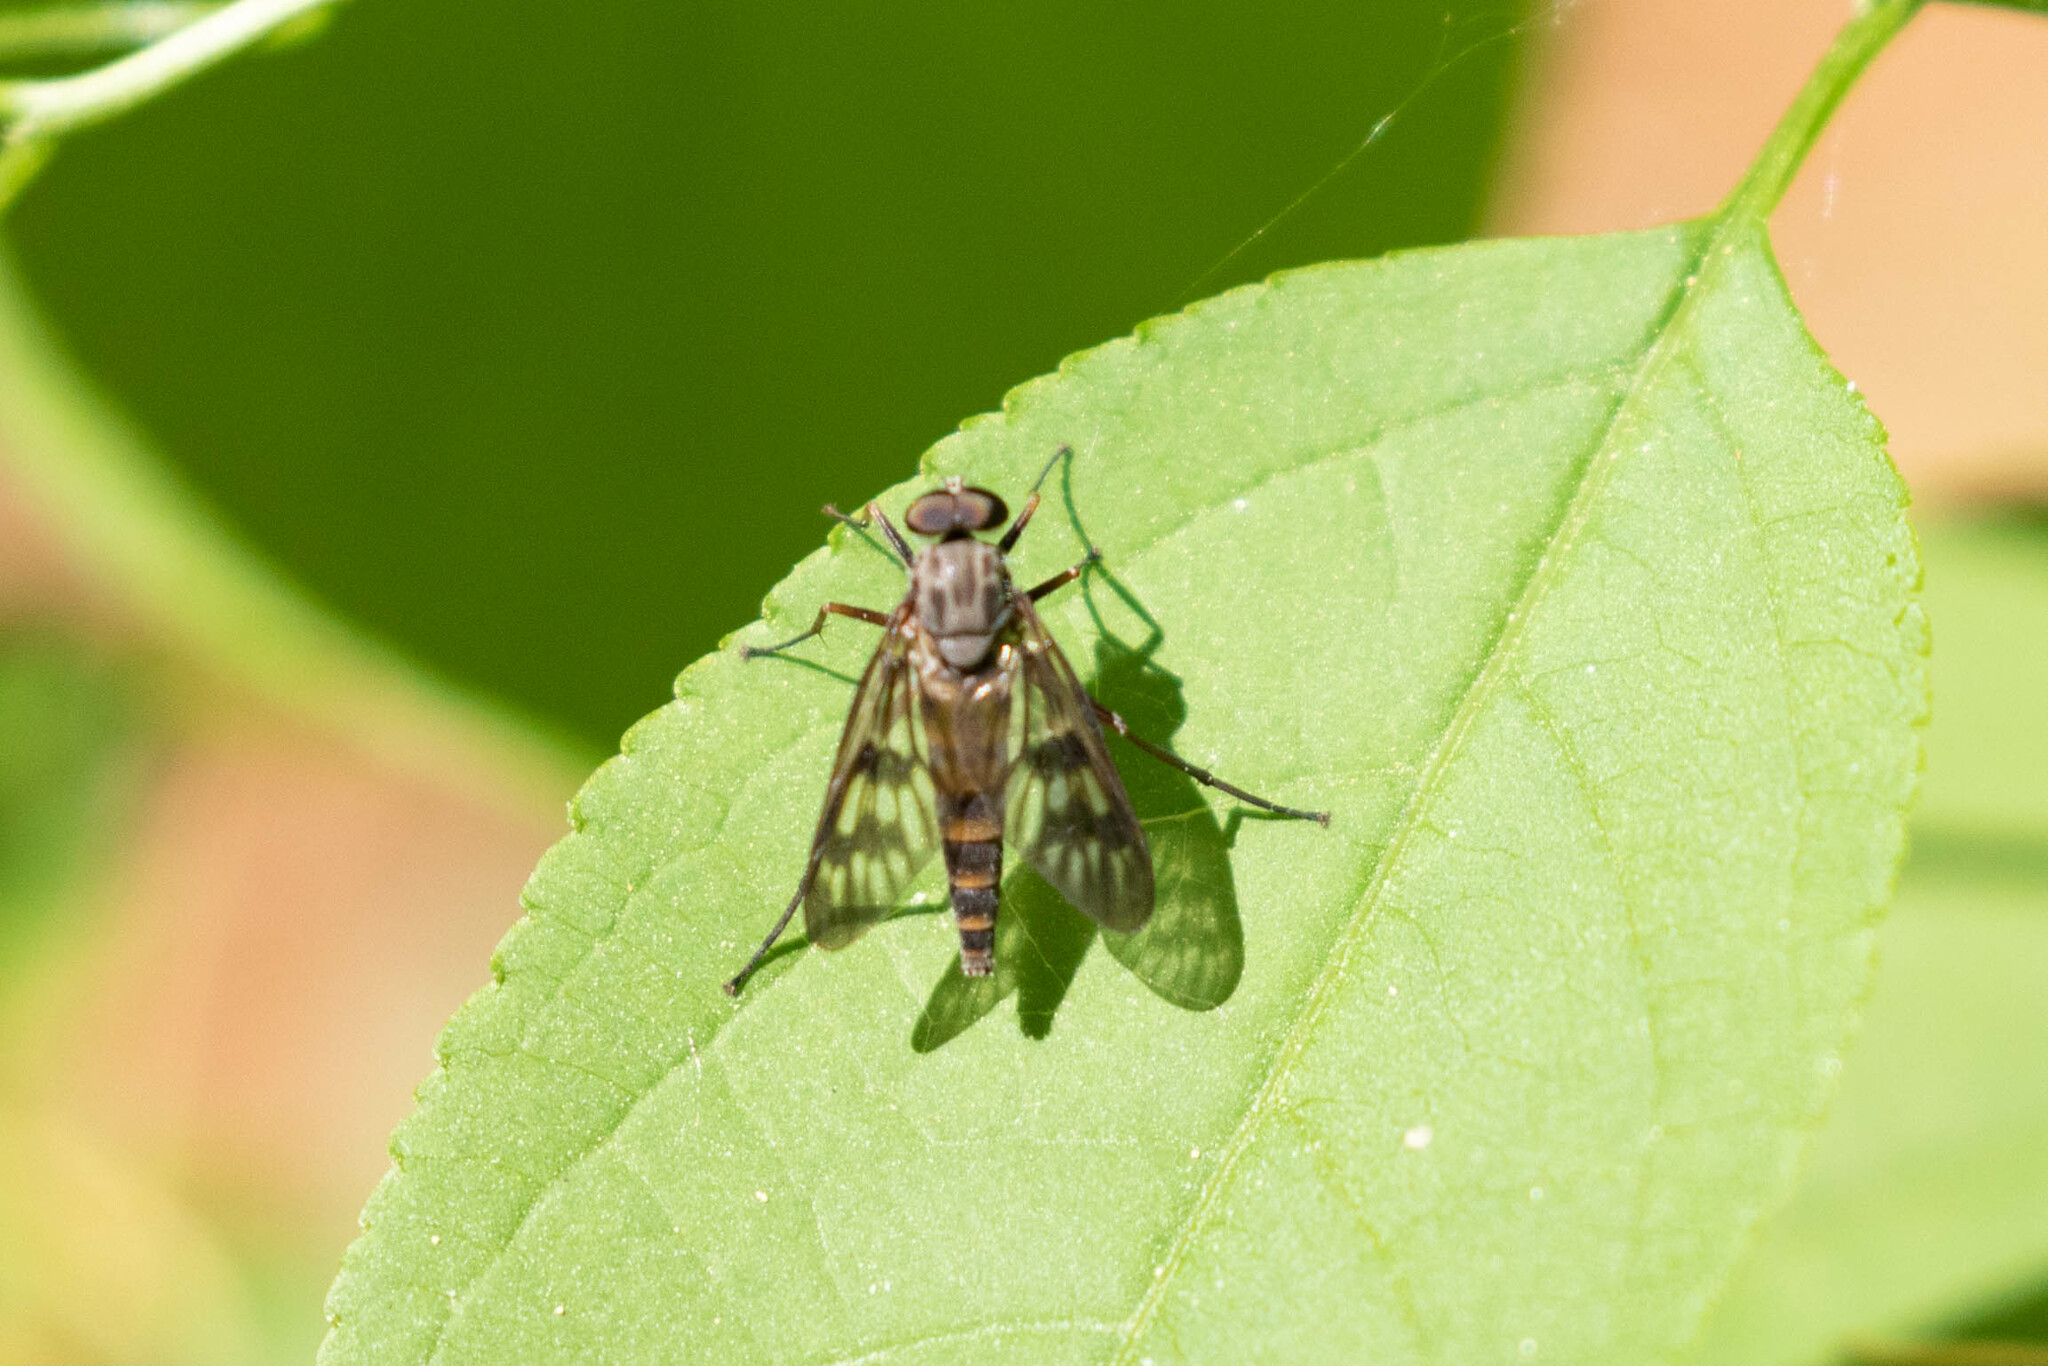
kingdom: Animalia
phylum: Arthropoda
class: Insecta
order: Diptera
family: Rhagionidae
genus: Rhagio
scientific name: Rhagio mystaceus
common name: Common snipe fly
